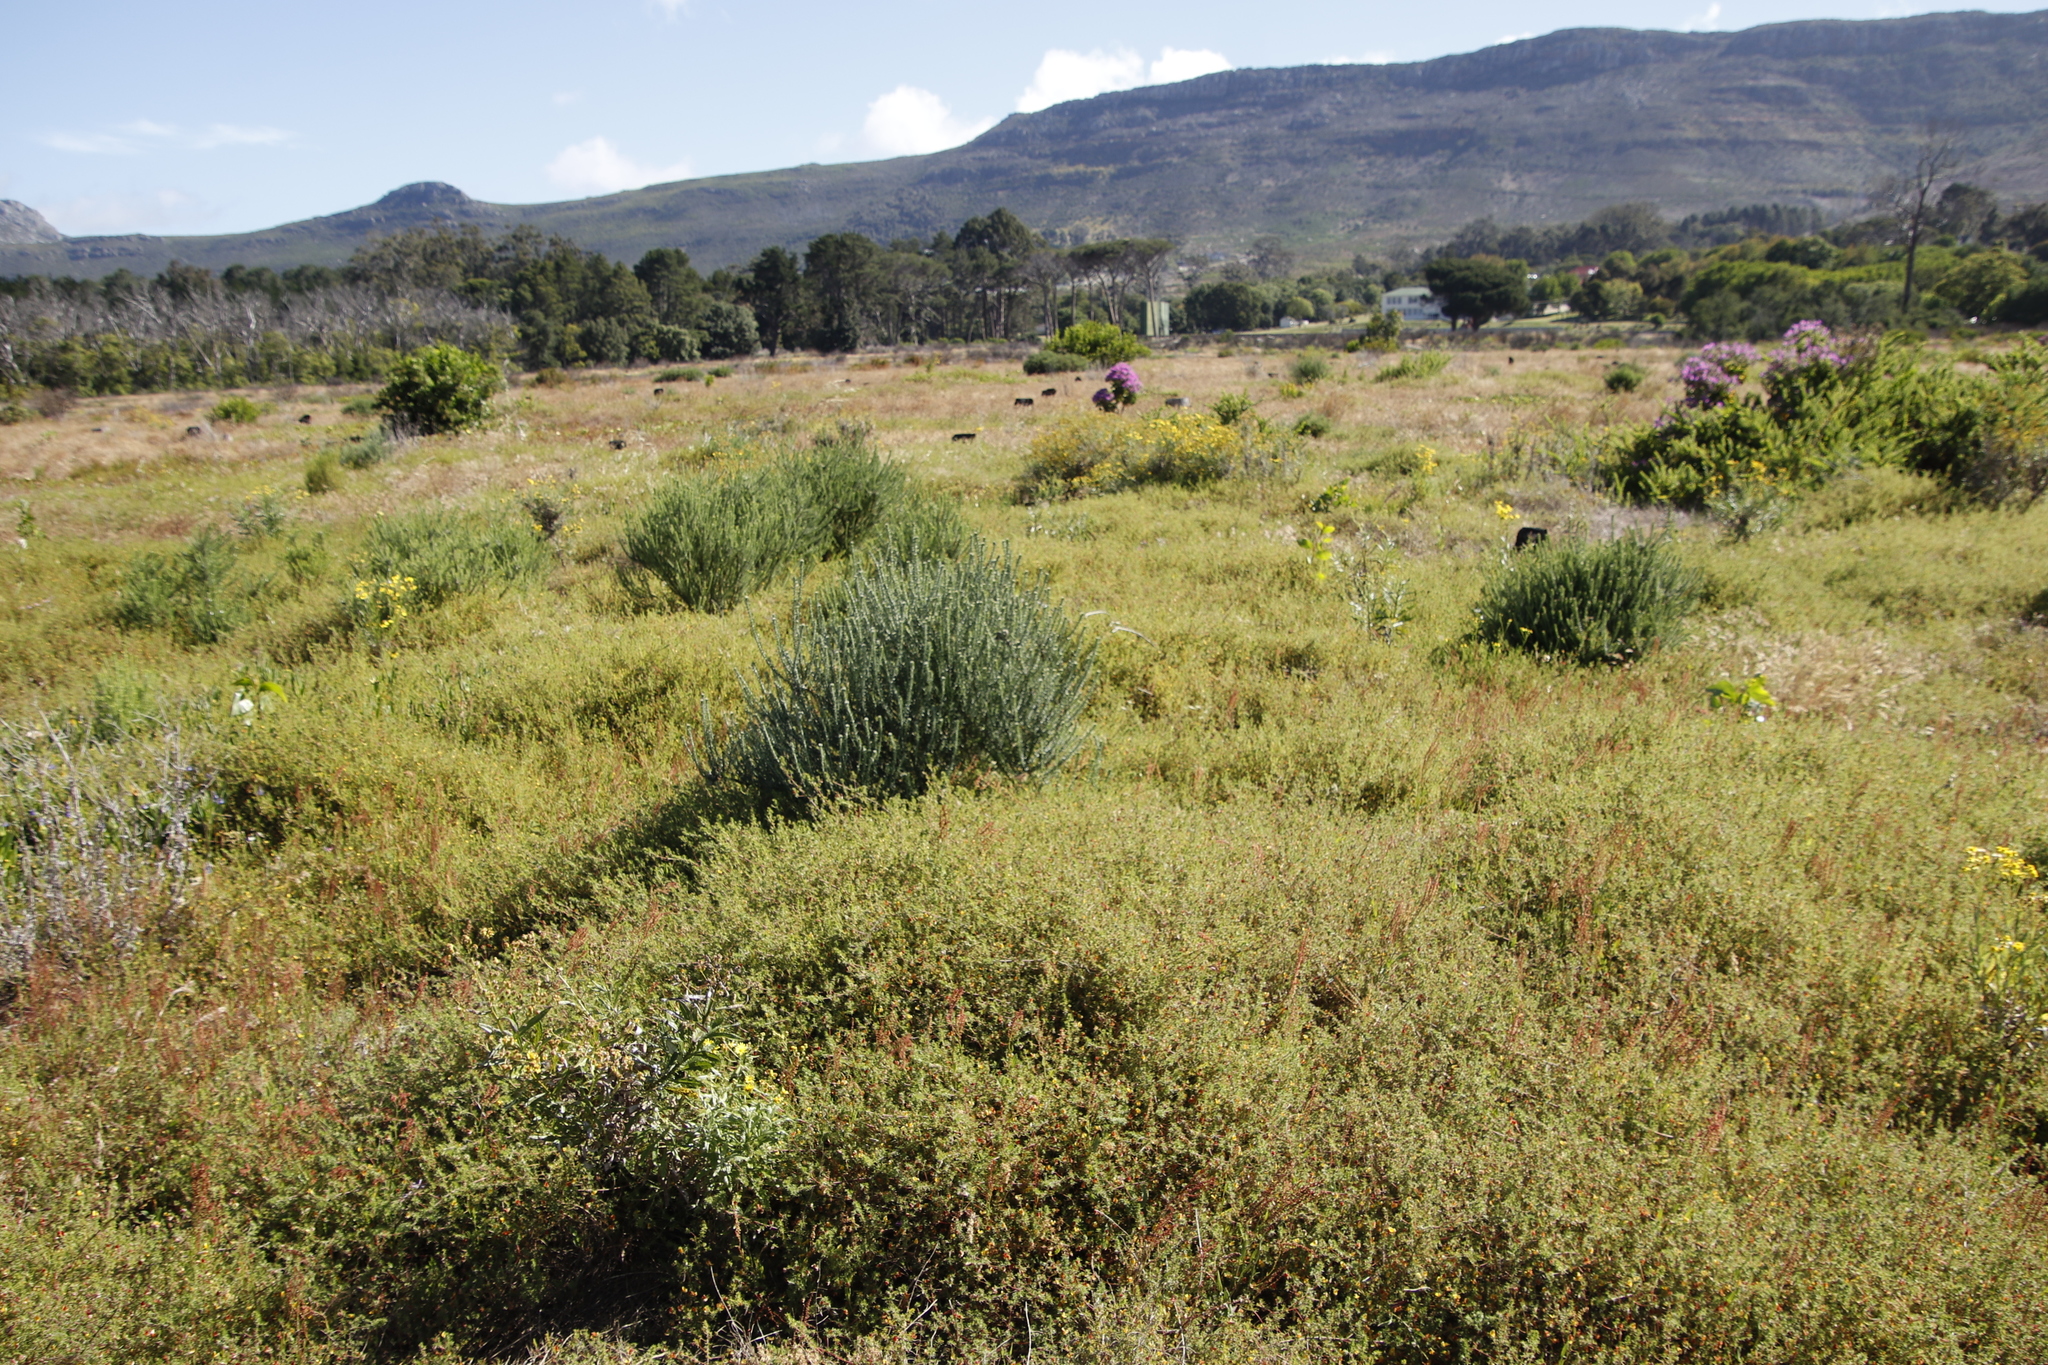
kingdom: Plantae
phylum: Tracheophyta
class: Magnoliopsida
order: Asterales
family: Asteraceae
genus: Metalasia
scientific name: Metalasia densa
